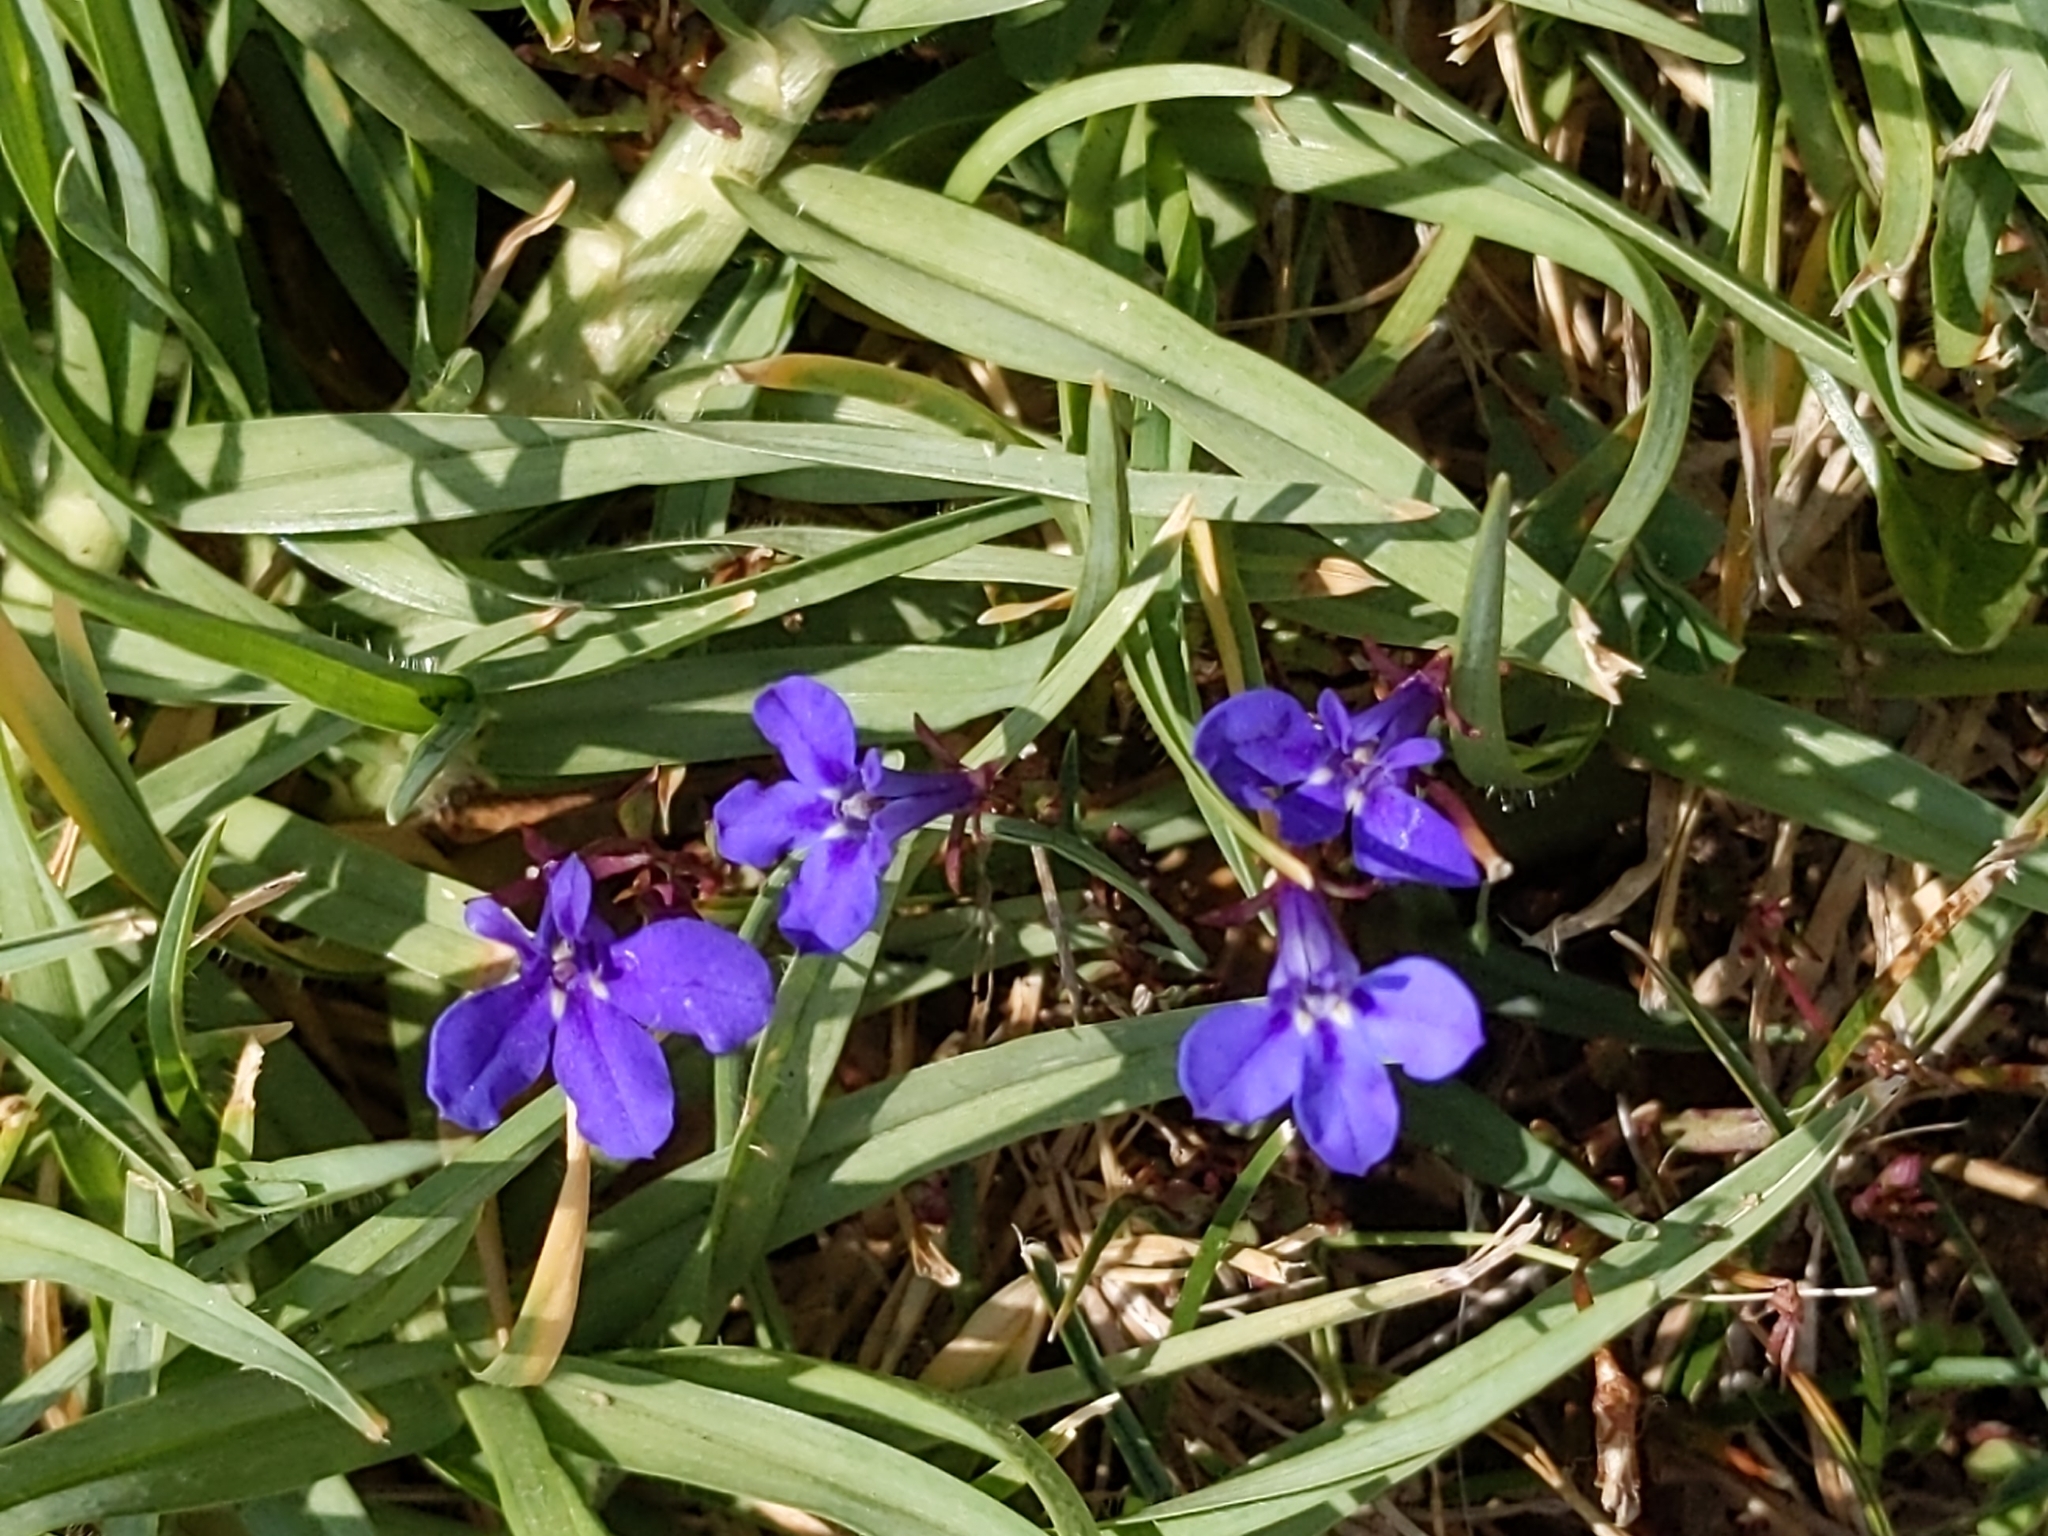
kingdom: Plantae
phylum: Tracheophyta
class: Magnoliopsida
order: Asterales
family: Campanulaceae
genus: Lobelia
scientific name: Lobelia erinus
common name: Edging lobelia
